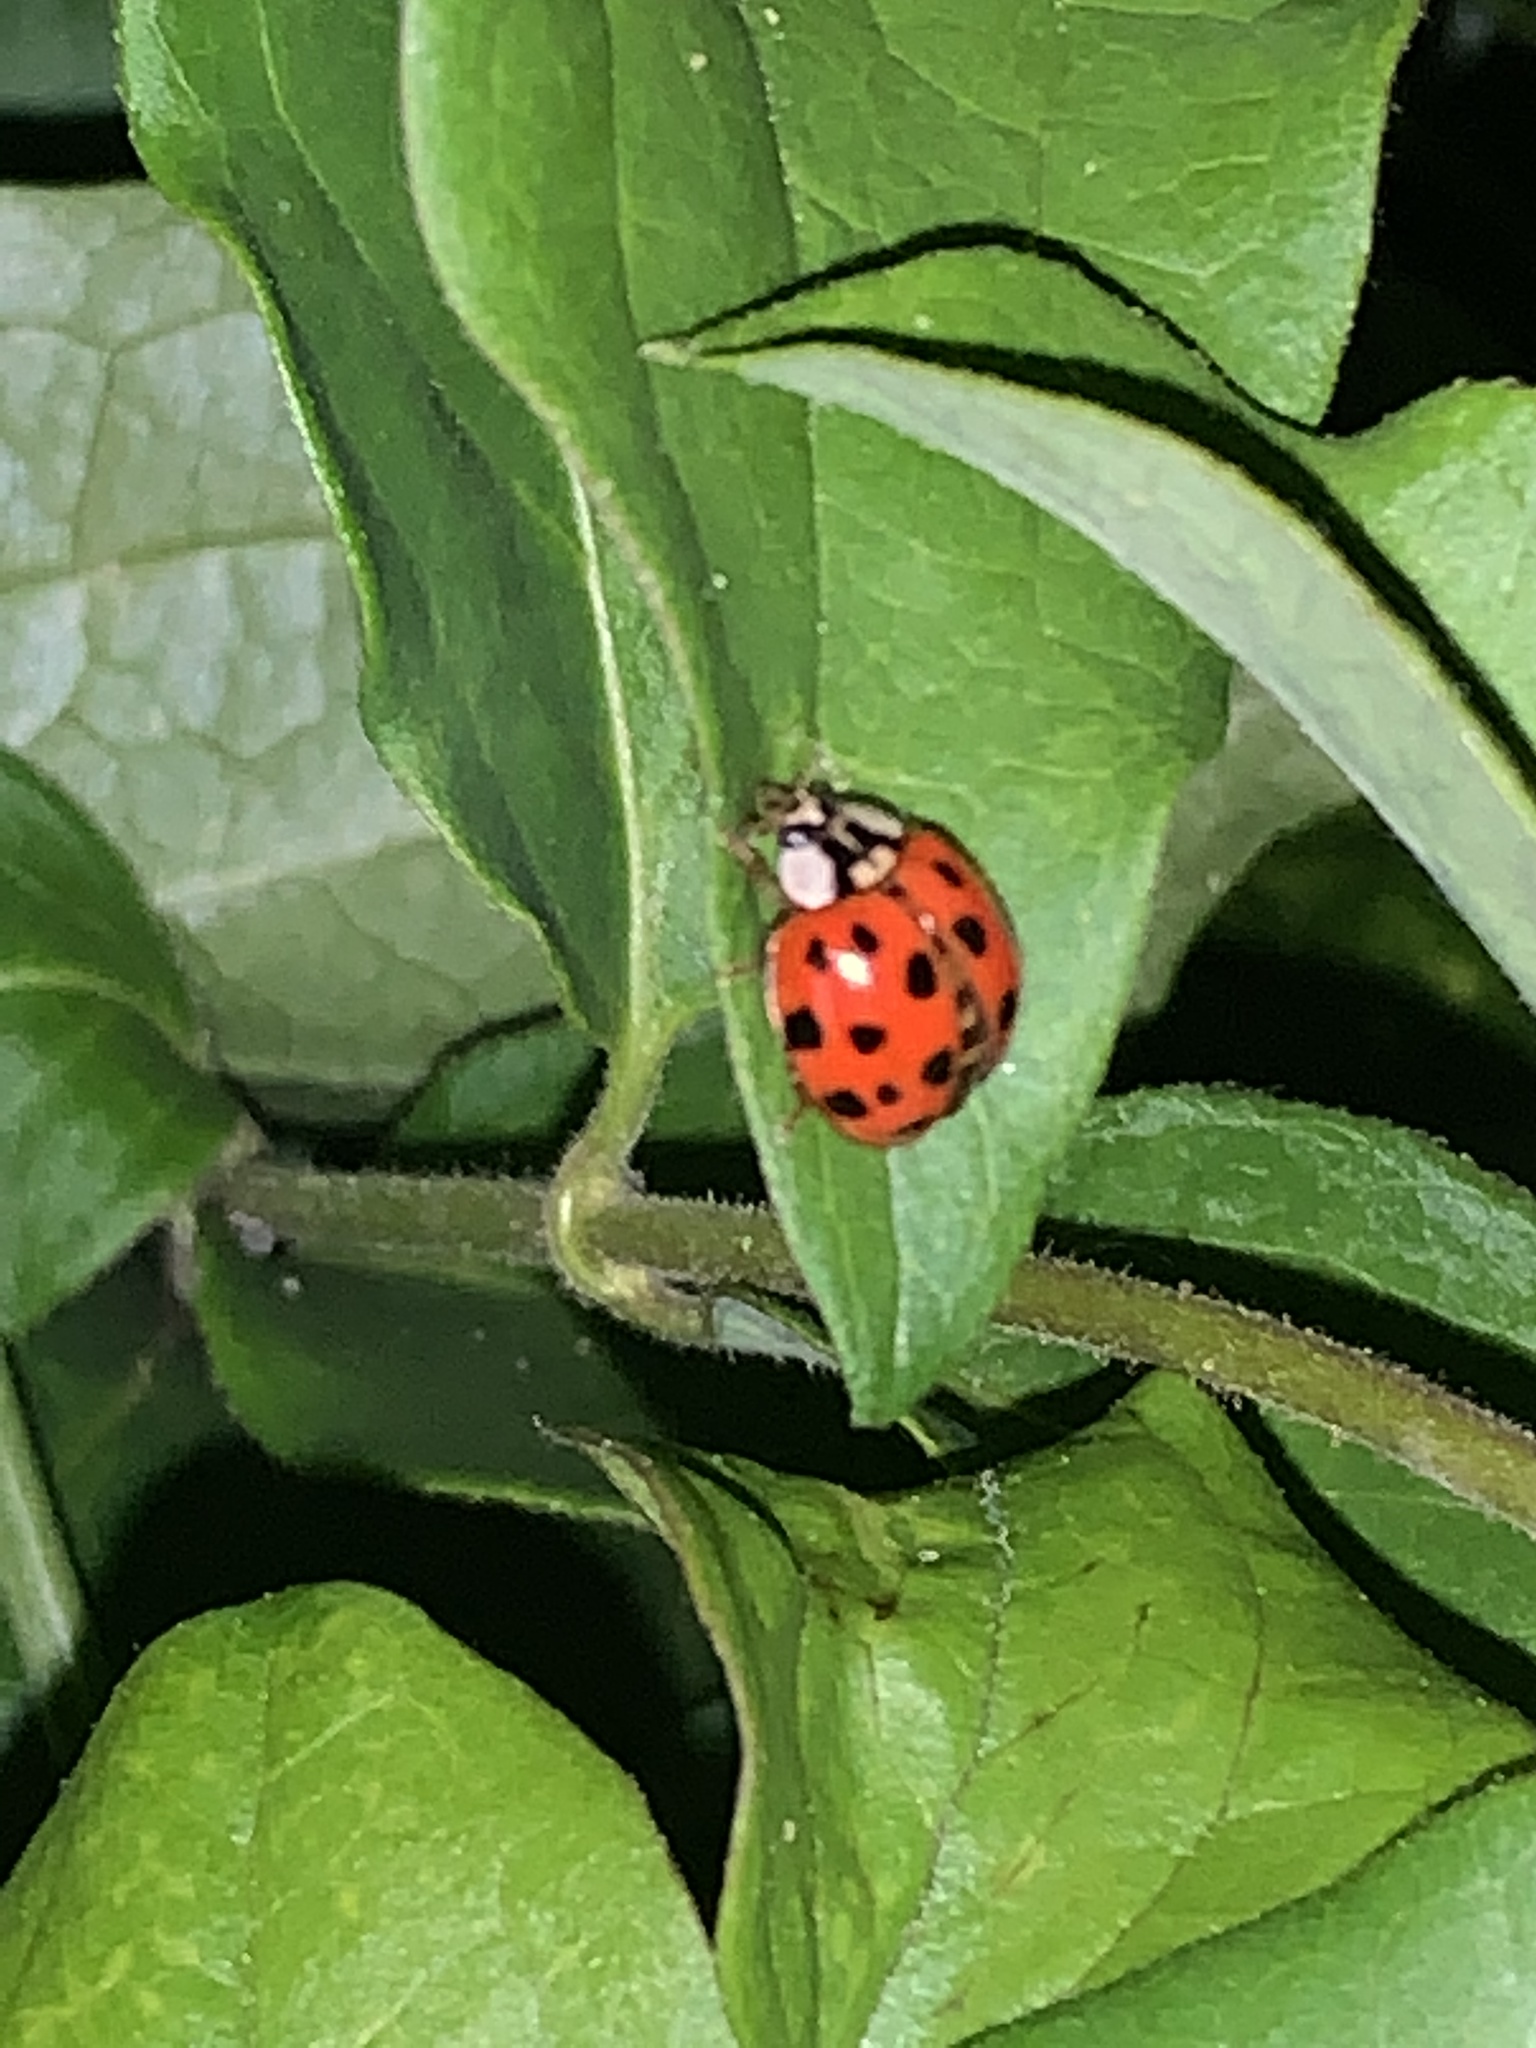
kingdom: Animalia
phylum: Arthropoda
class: Insecta
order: Coleoptera
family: Coccinellidae
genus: Harmonia
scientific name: Harmonia axyridis
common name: Harlequin ladybird
